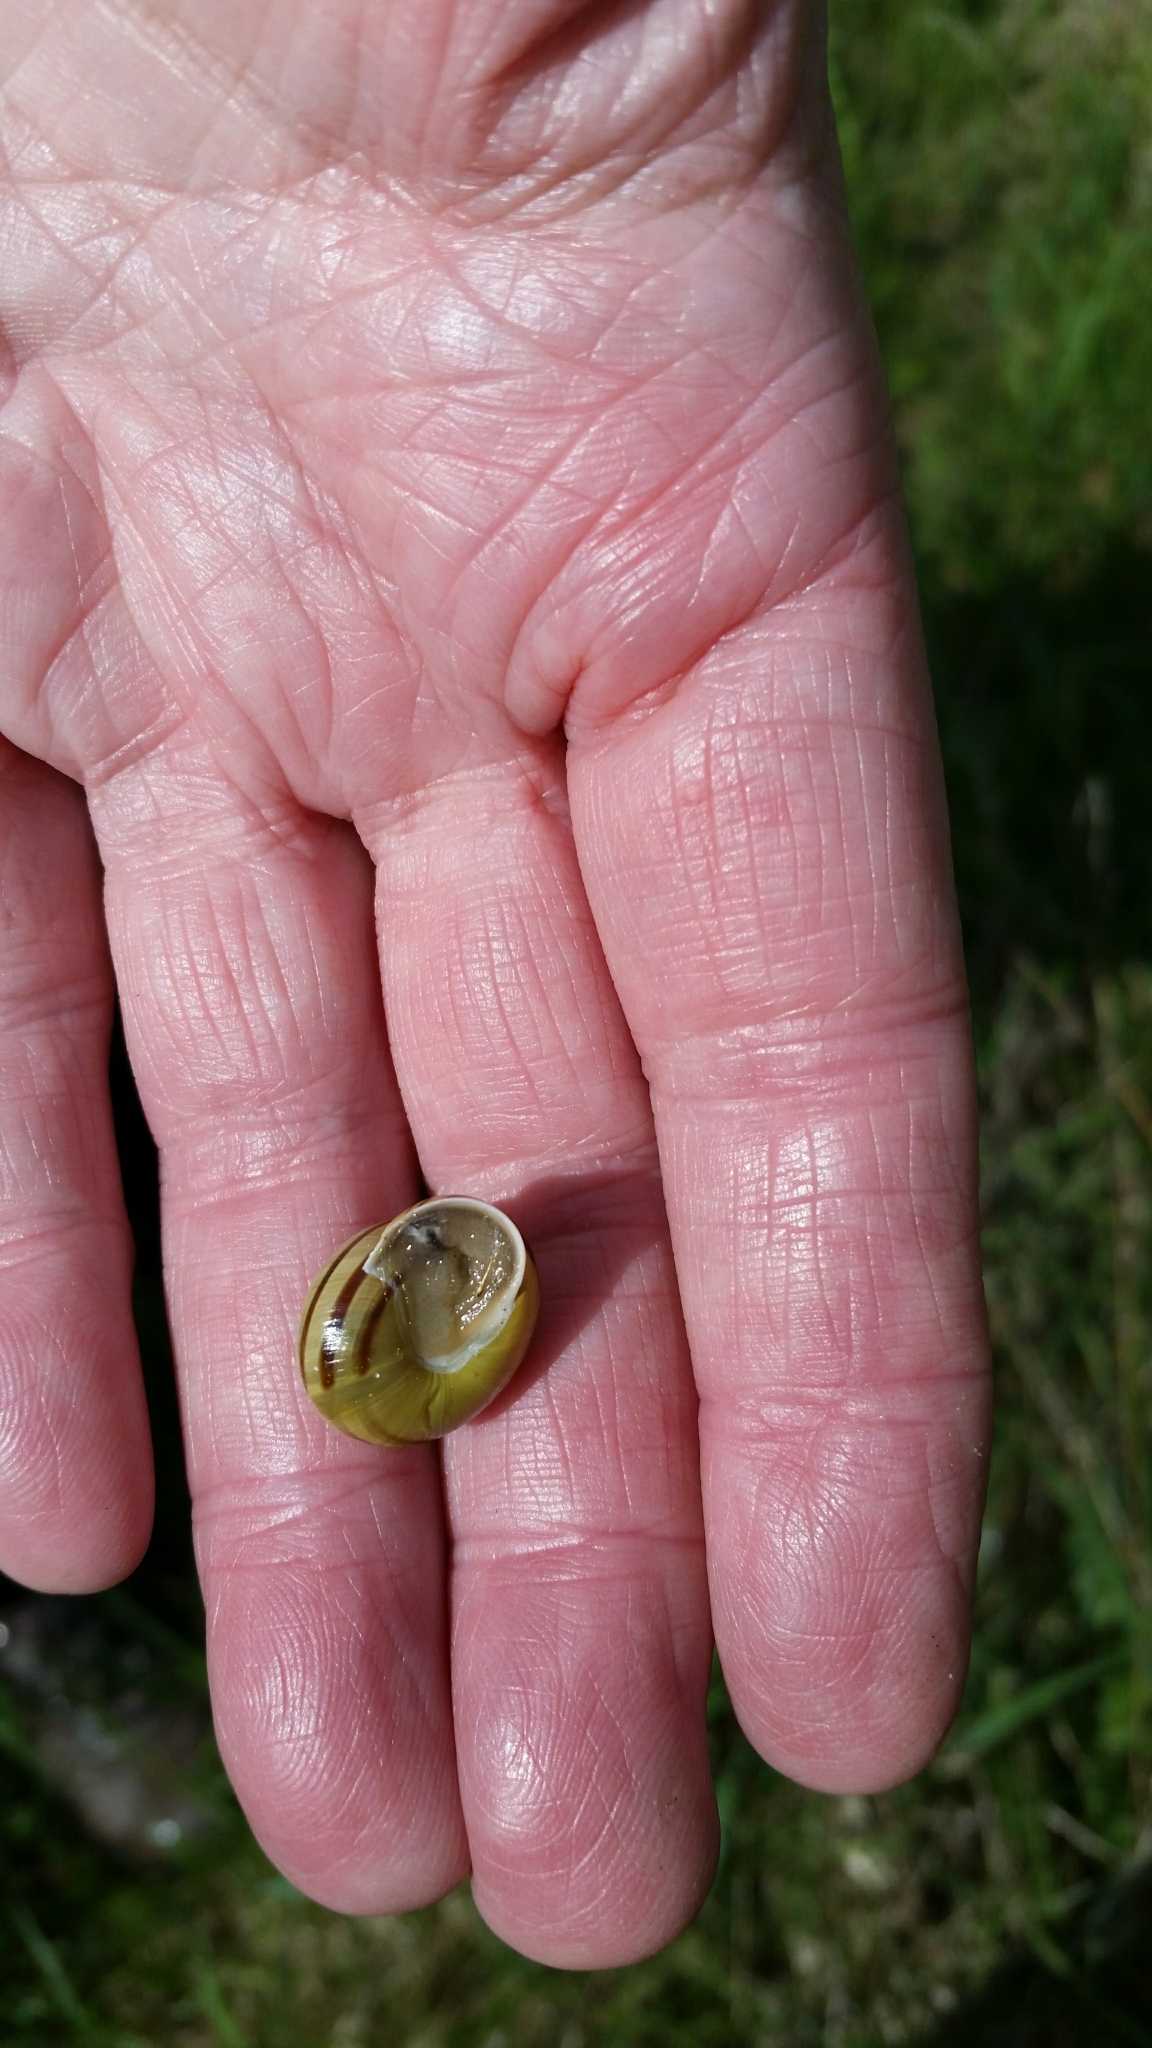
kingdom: Animalia
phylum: Mollusca
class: Gastropoda
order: Stylommatophora
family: Helicidae
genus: Cepaea
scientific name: Cepaea hortensis
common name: White-lip gardensnail
